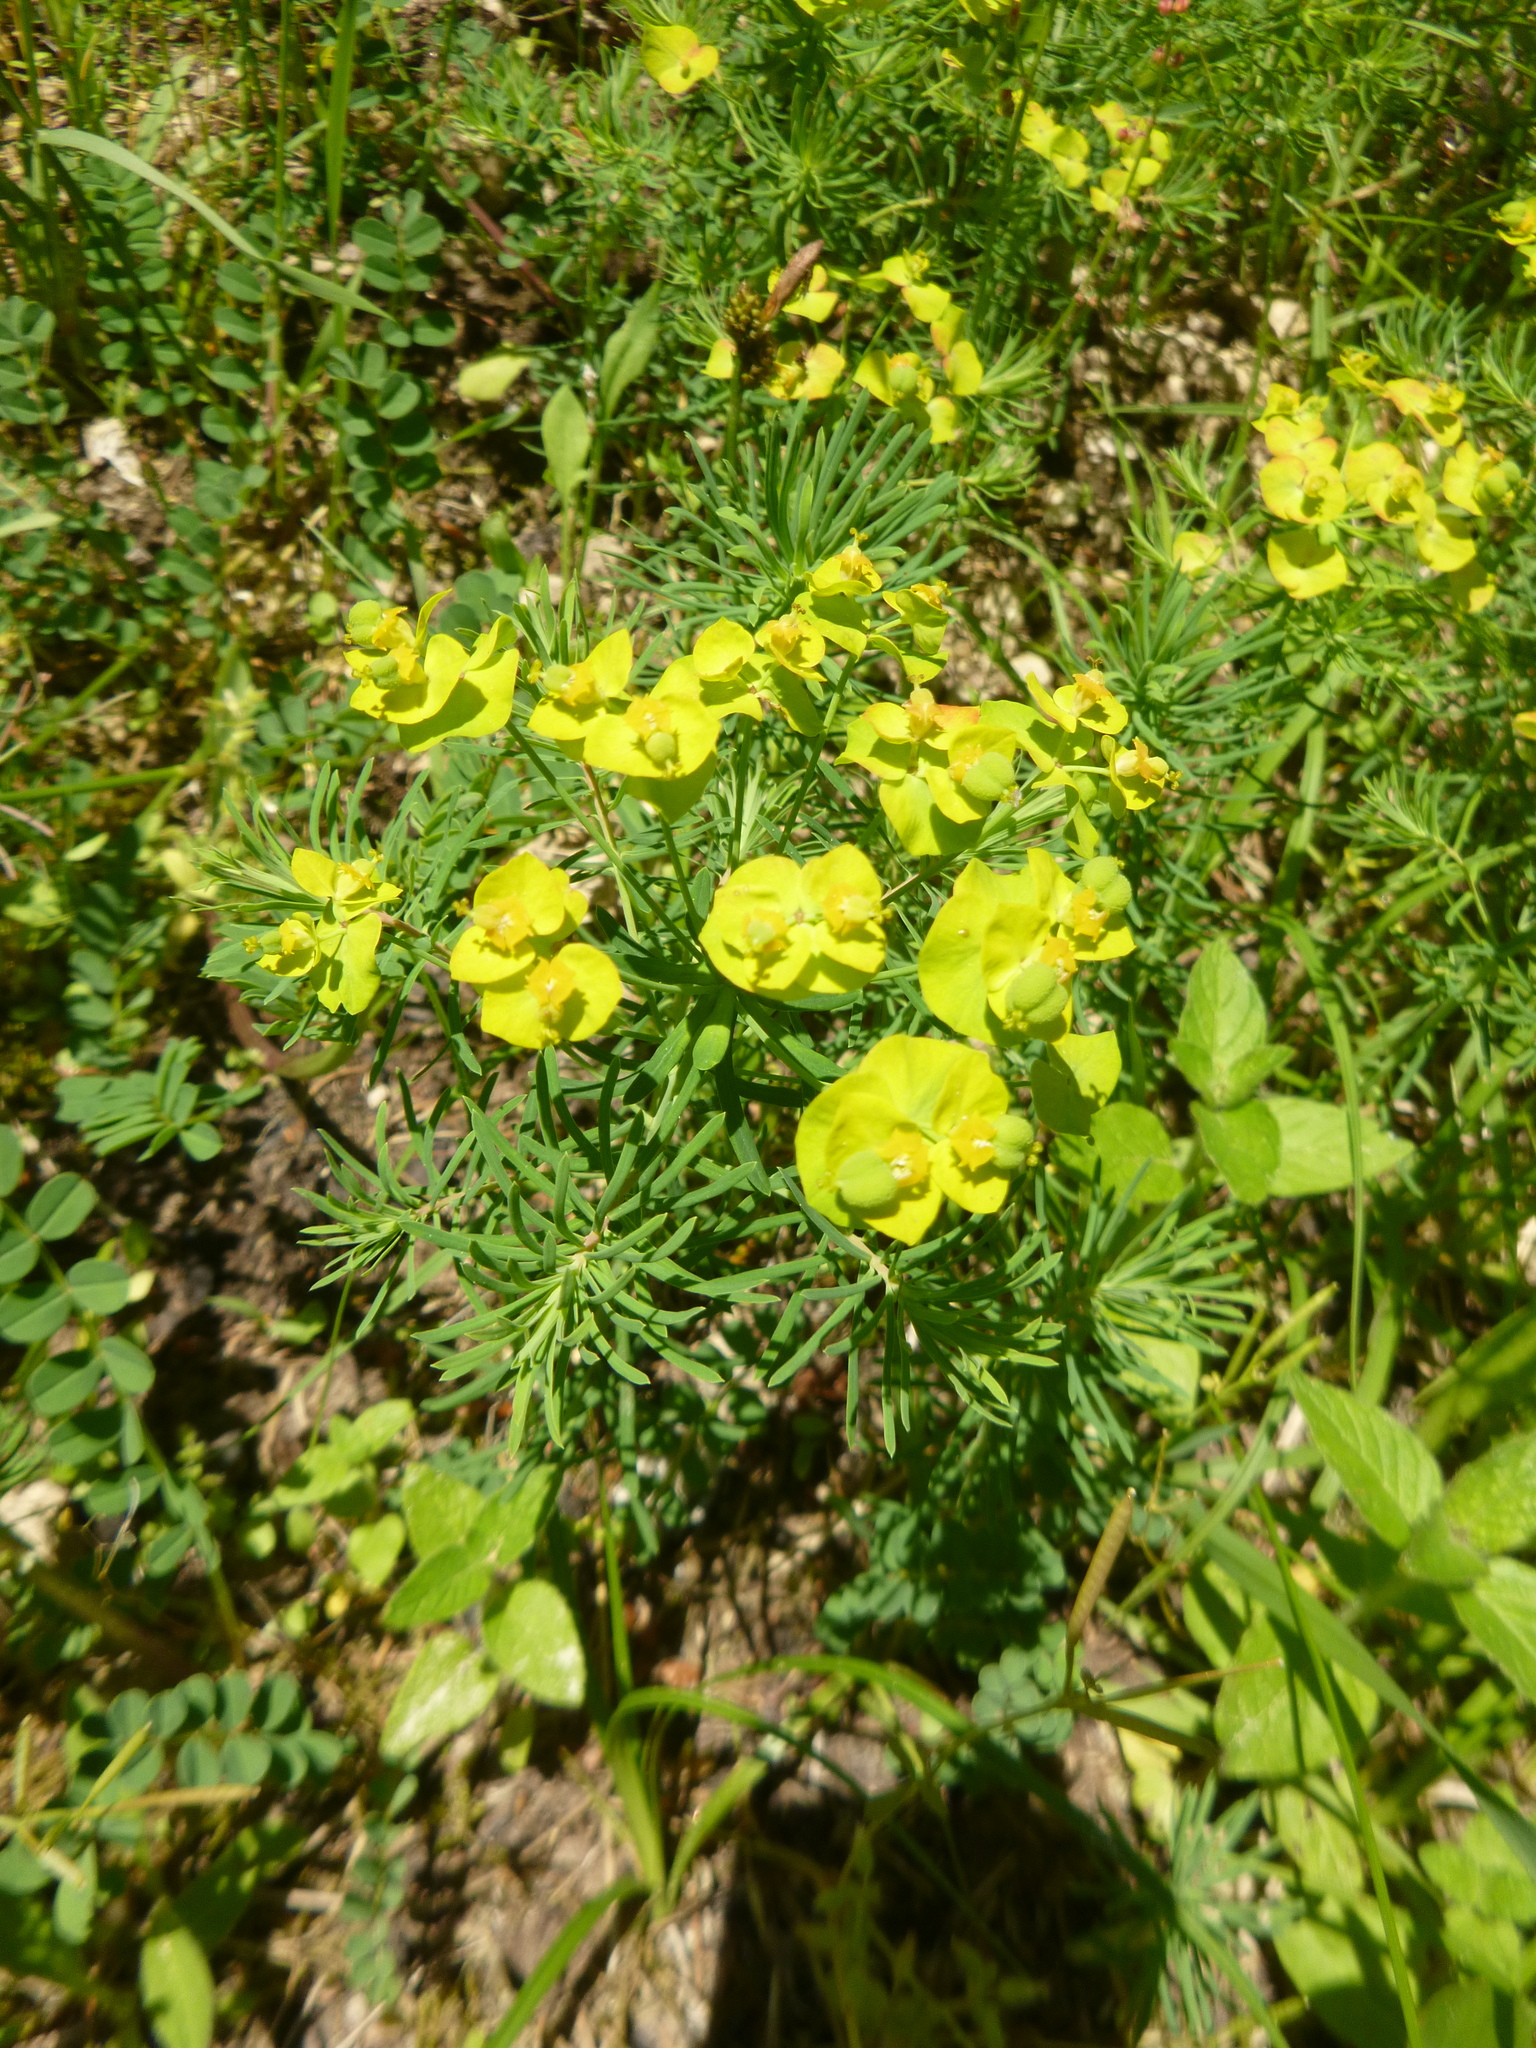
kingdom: Plantae
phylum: Tracheophyta
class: Magnoliopsida
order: Malpighiales
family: Euphorbiaceae
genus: Euphorbia
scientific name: Euphorbia cyparissias
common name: Cypress spurge
